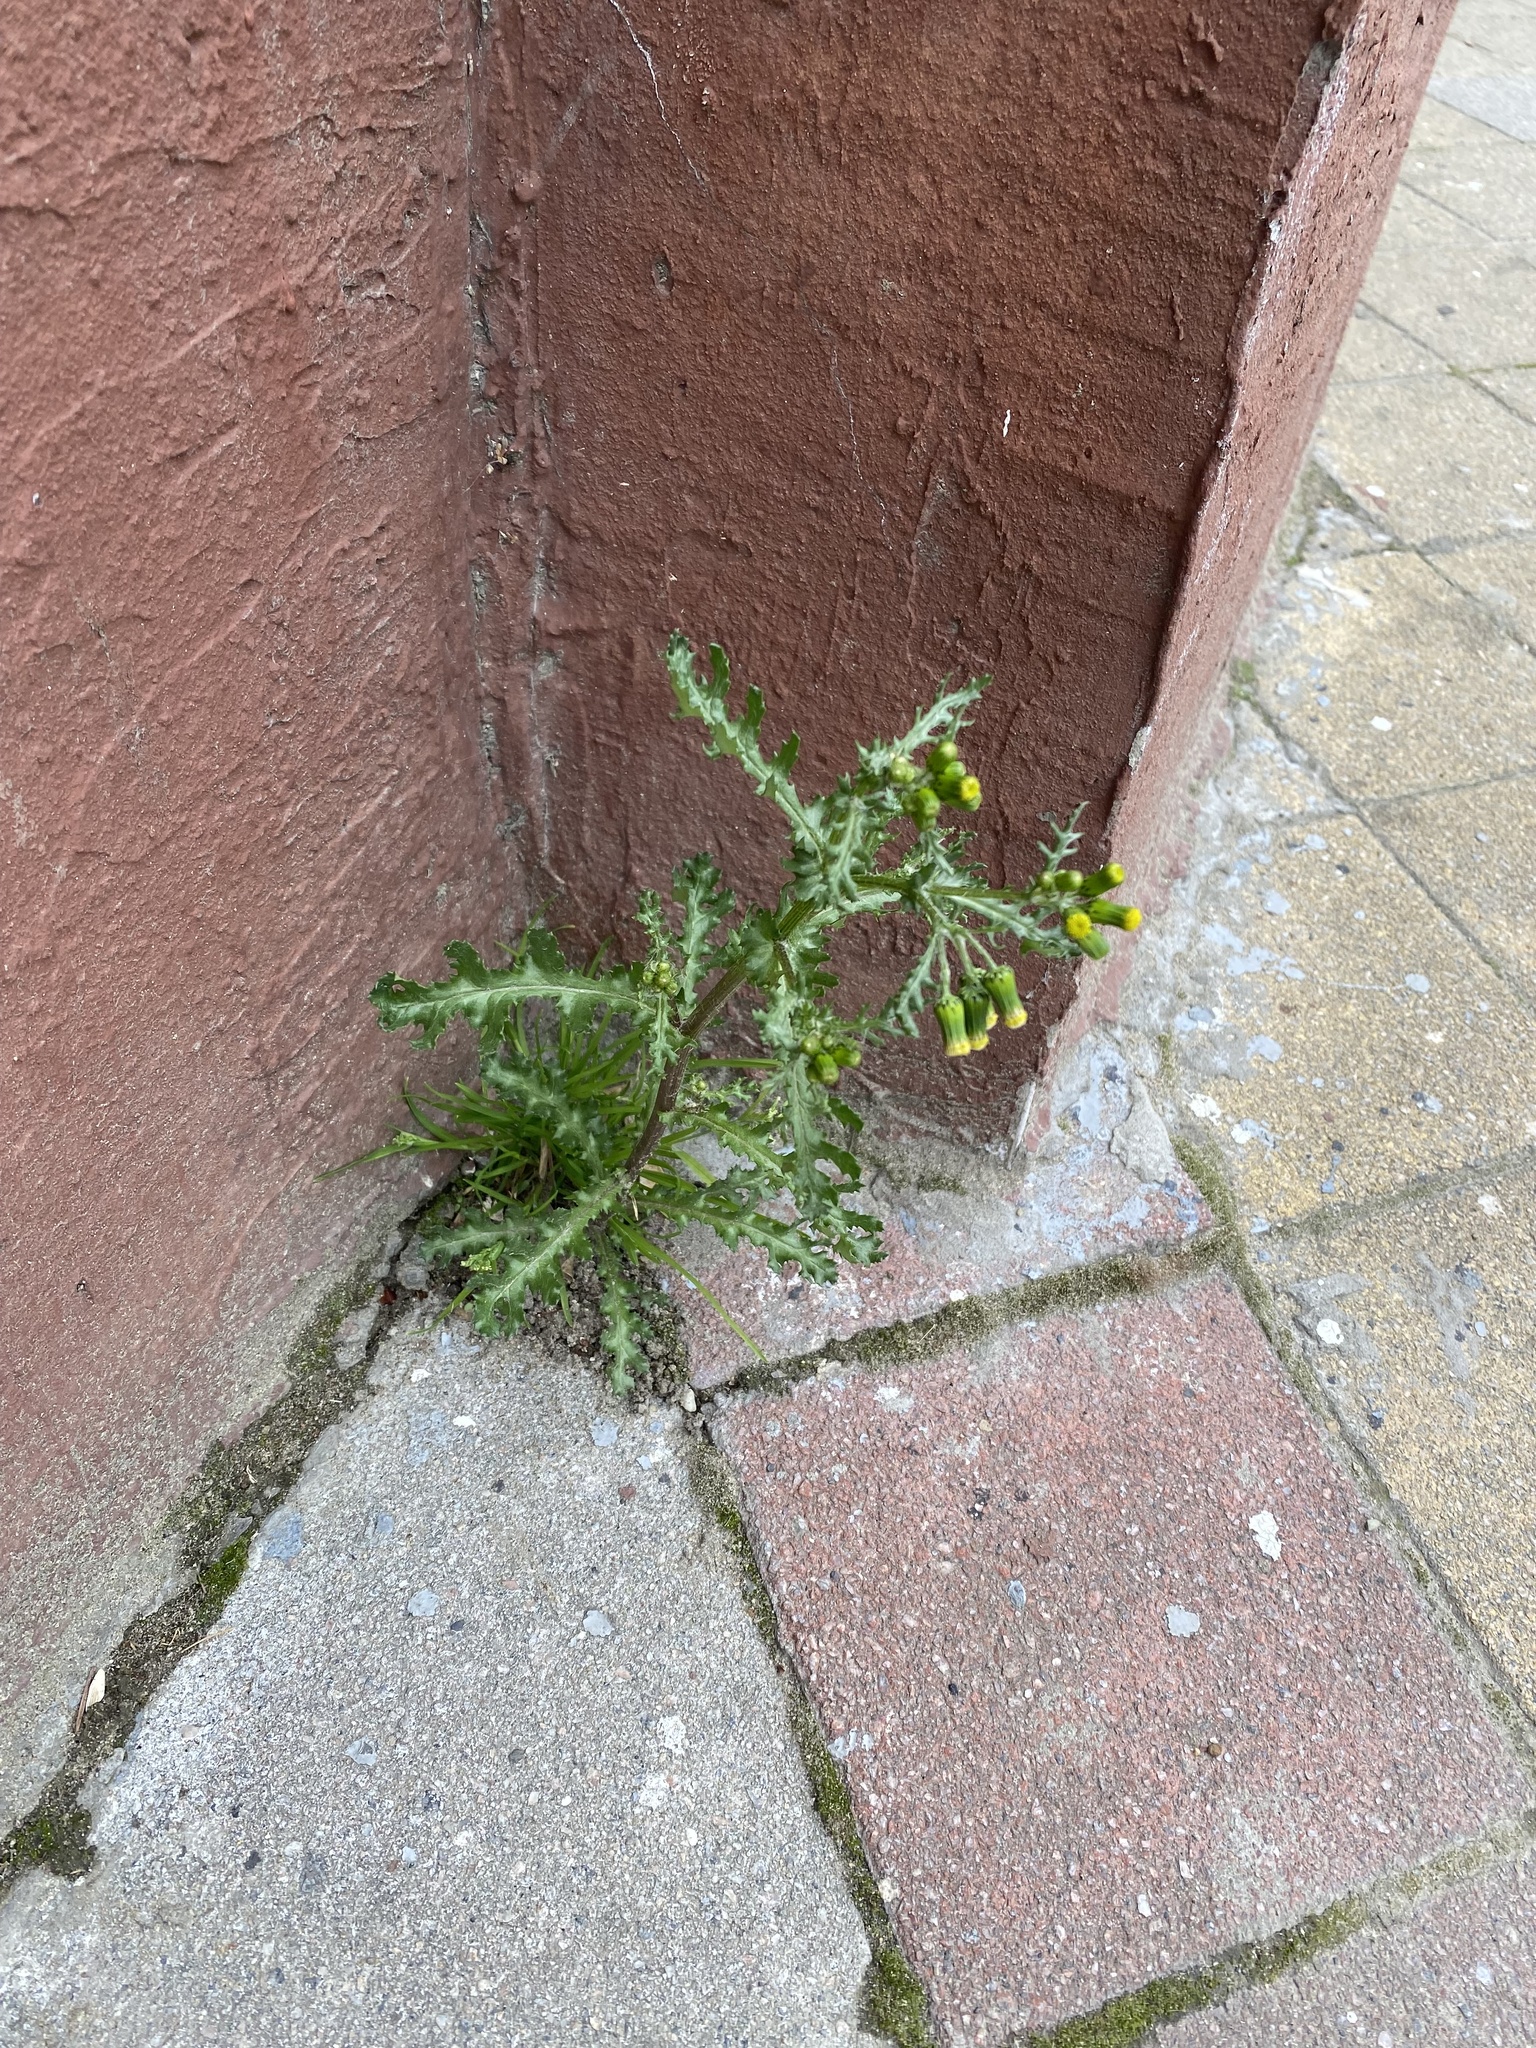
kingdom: Plantae
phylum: Tracheophyta
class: Magnoliopsida
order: Asterales
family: Asteraceae
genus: Senecio
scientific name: Senecio vulgaris
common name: Old-man-in-the-spring
